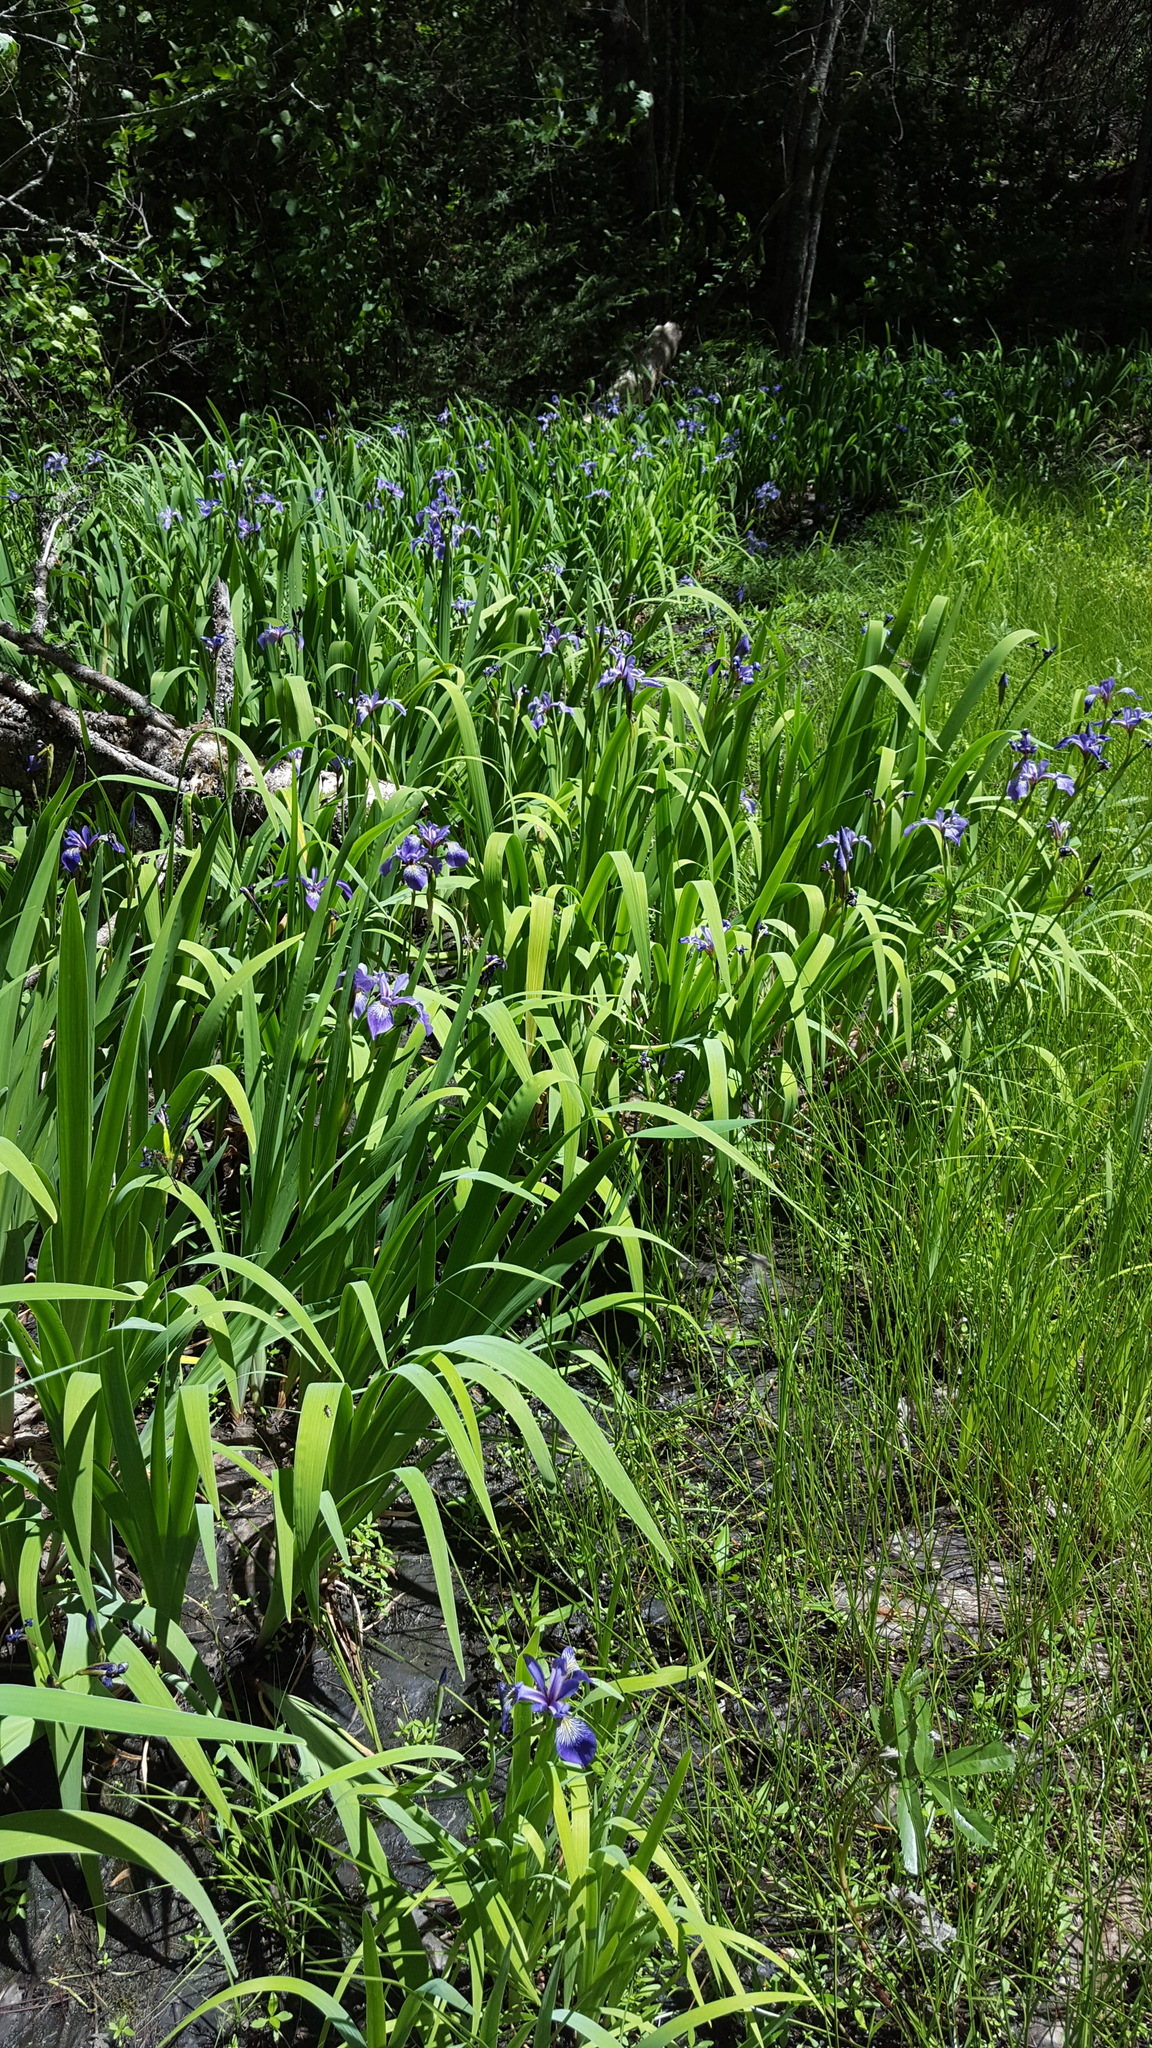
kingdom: Plantae
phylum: Tracheophyta
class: Liliopsida
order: Asparagales
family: Iridaceae
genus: Iris
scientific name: Iris versicolor
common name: Purple iris
